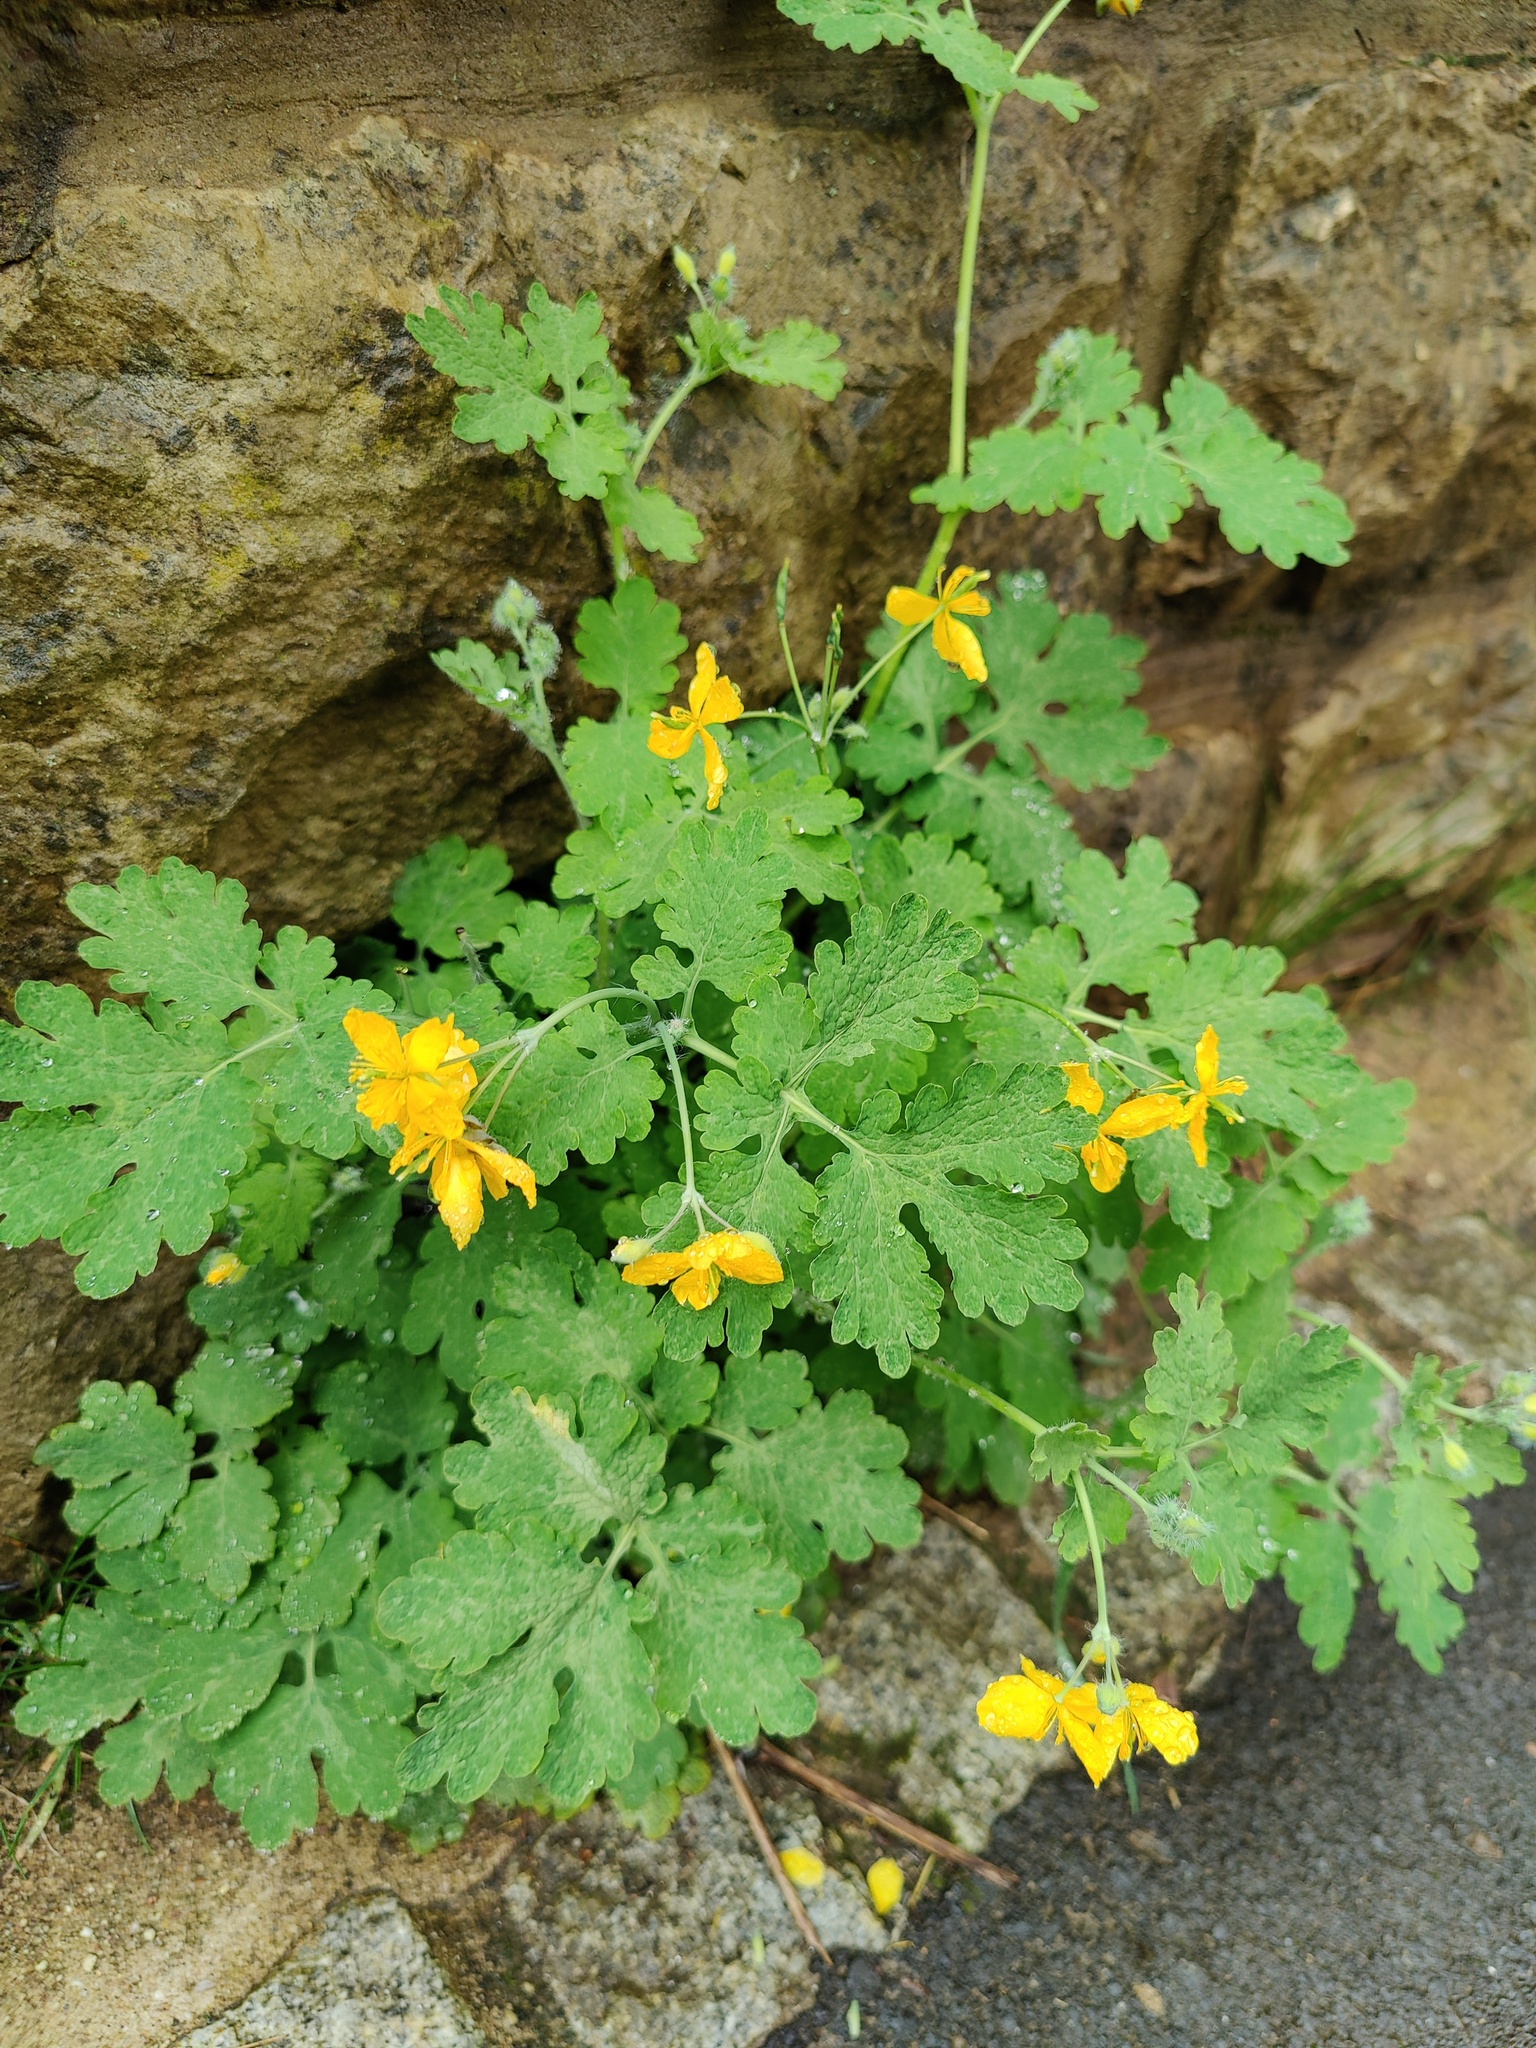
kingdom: Plantae
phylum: Tracheophyta
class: Magnoliopsida
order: Ranunculales
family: Papaveraceae
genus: Chelidonium
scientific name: Chelidonium majus
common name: Greater celandine
